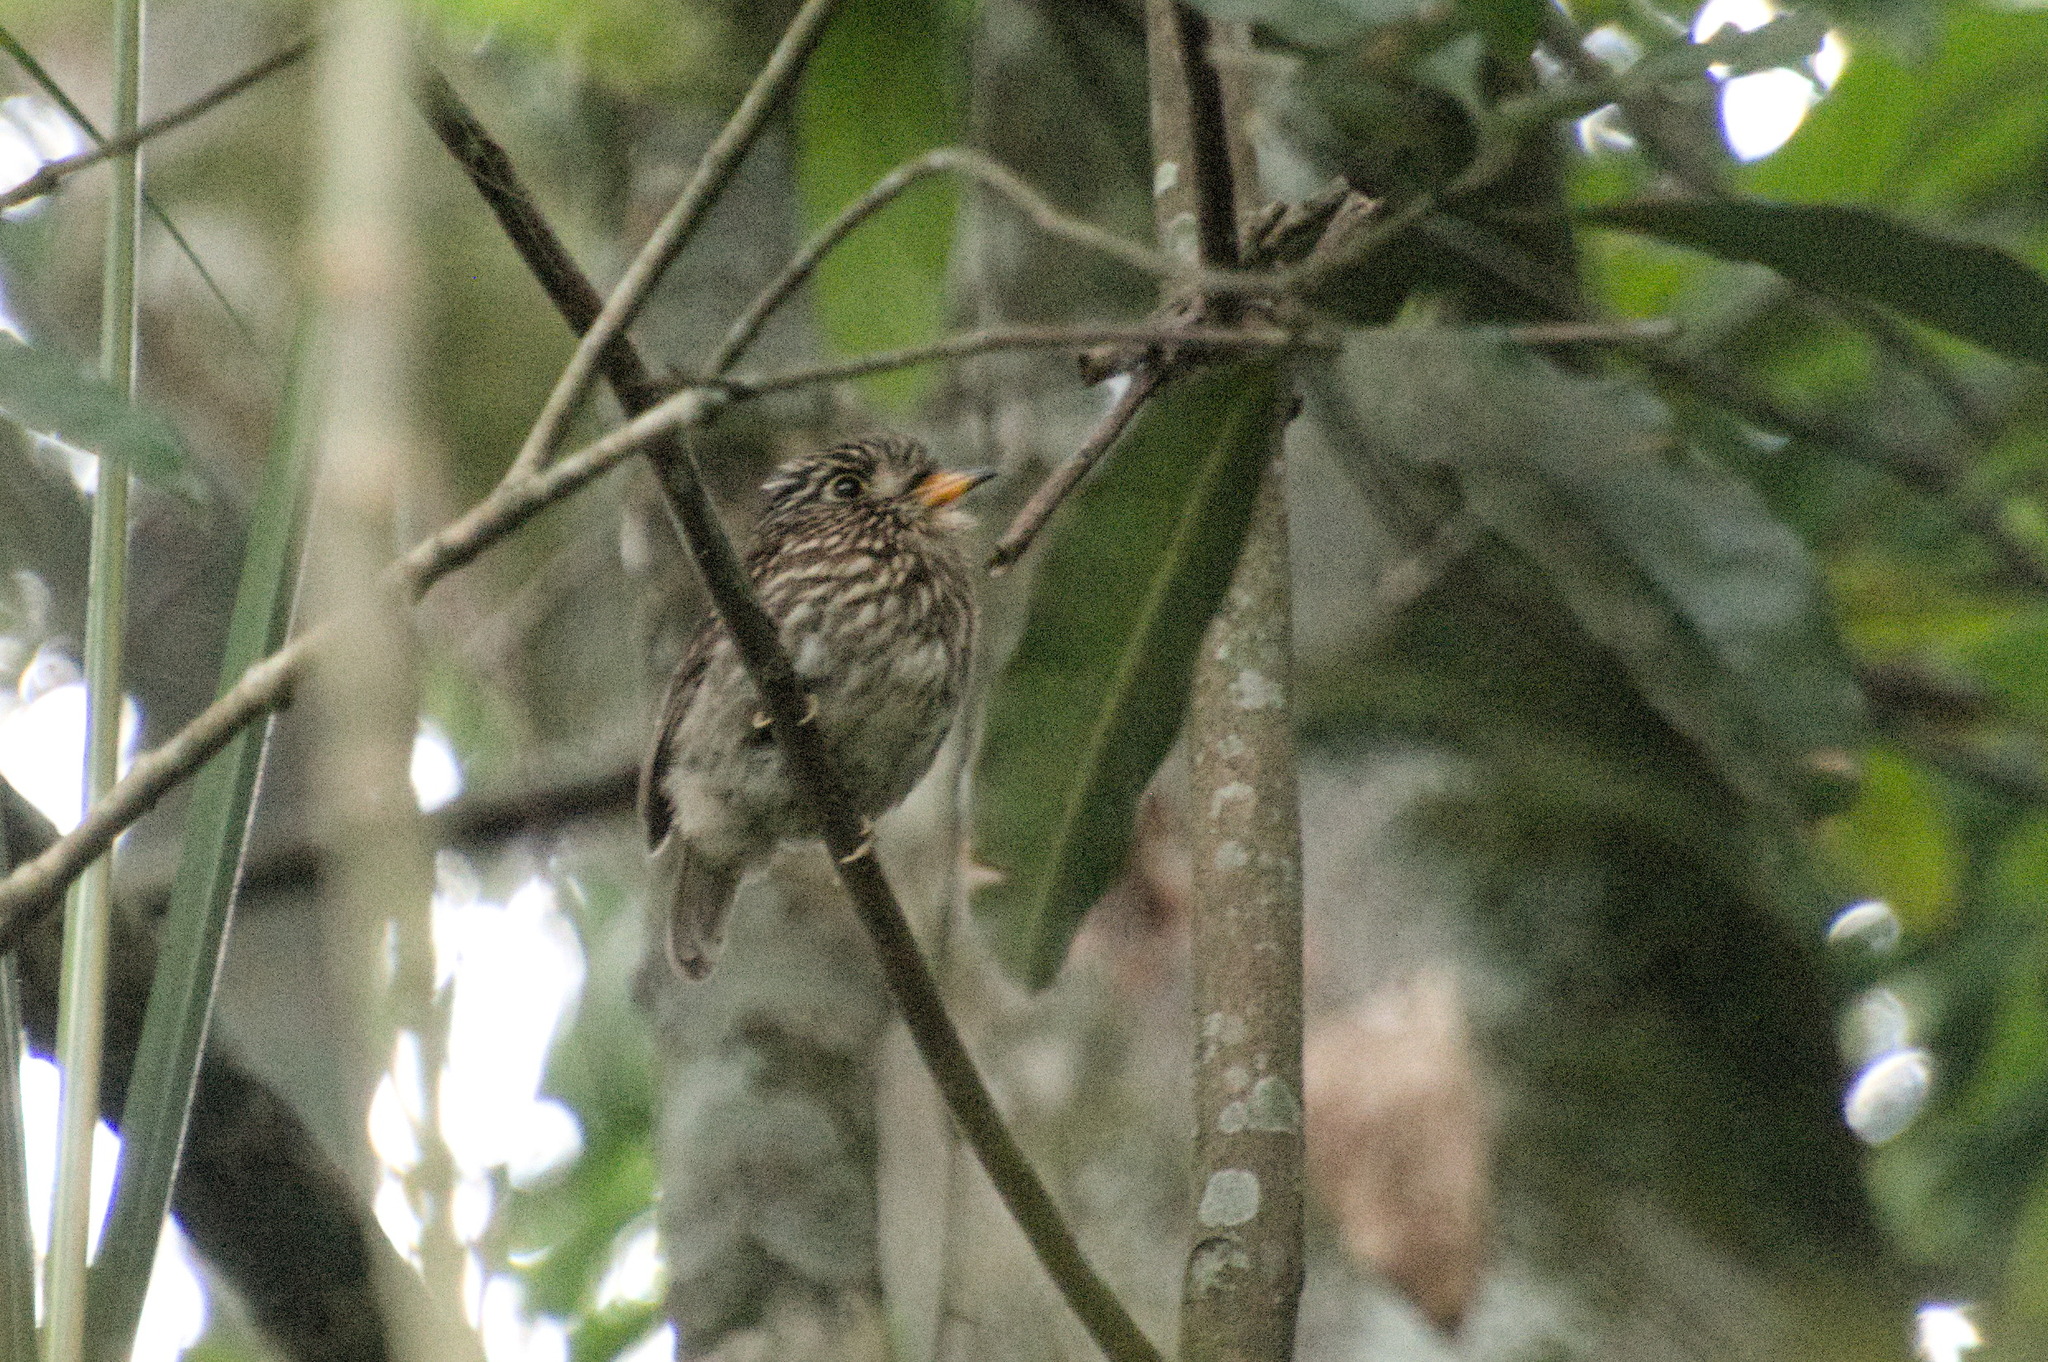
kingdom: Animalia
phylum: Chordata
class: Aves
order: Piciformes
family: Bucconidae
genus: Malacoptila
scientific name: Malacoptila fusca
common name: White-chested puffbird
